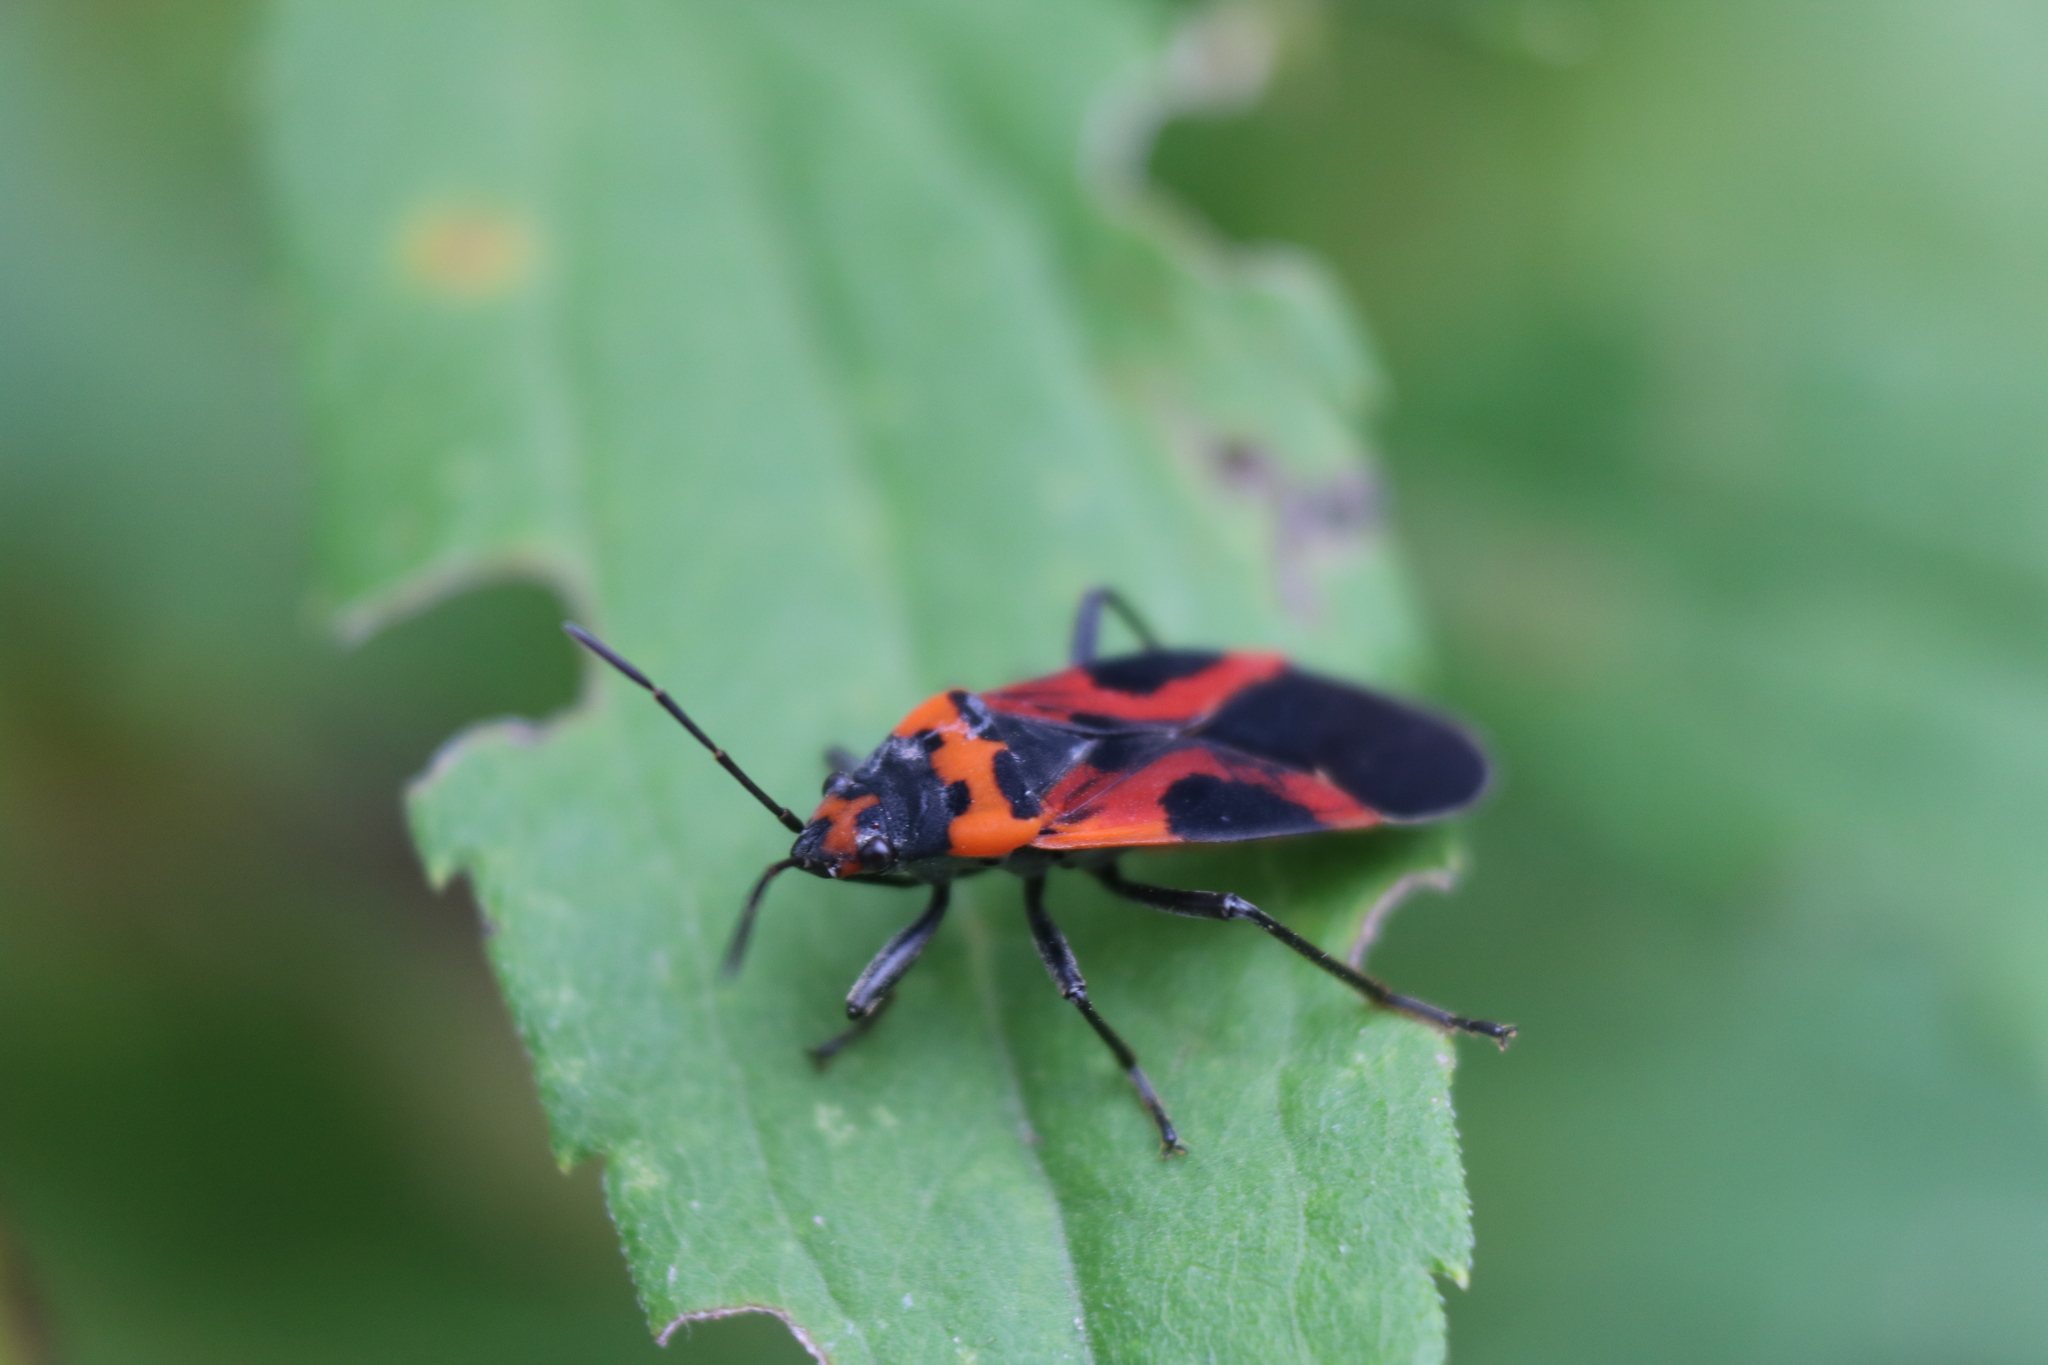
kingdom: Animalia
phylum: Arthropoda
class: Insecta
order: Hemiptera
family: Lygaeidae
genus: Lygaeus
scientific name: Lygaeus turcicus
